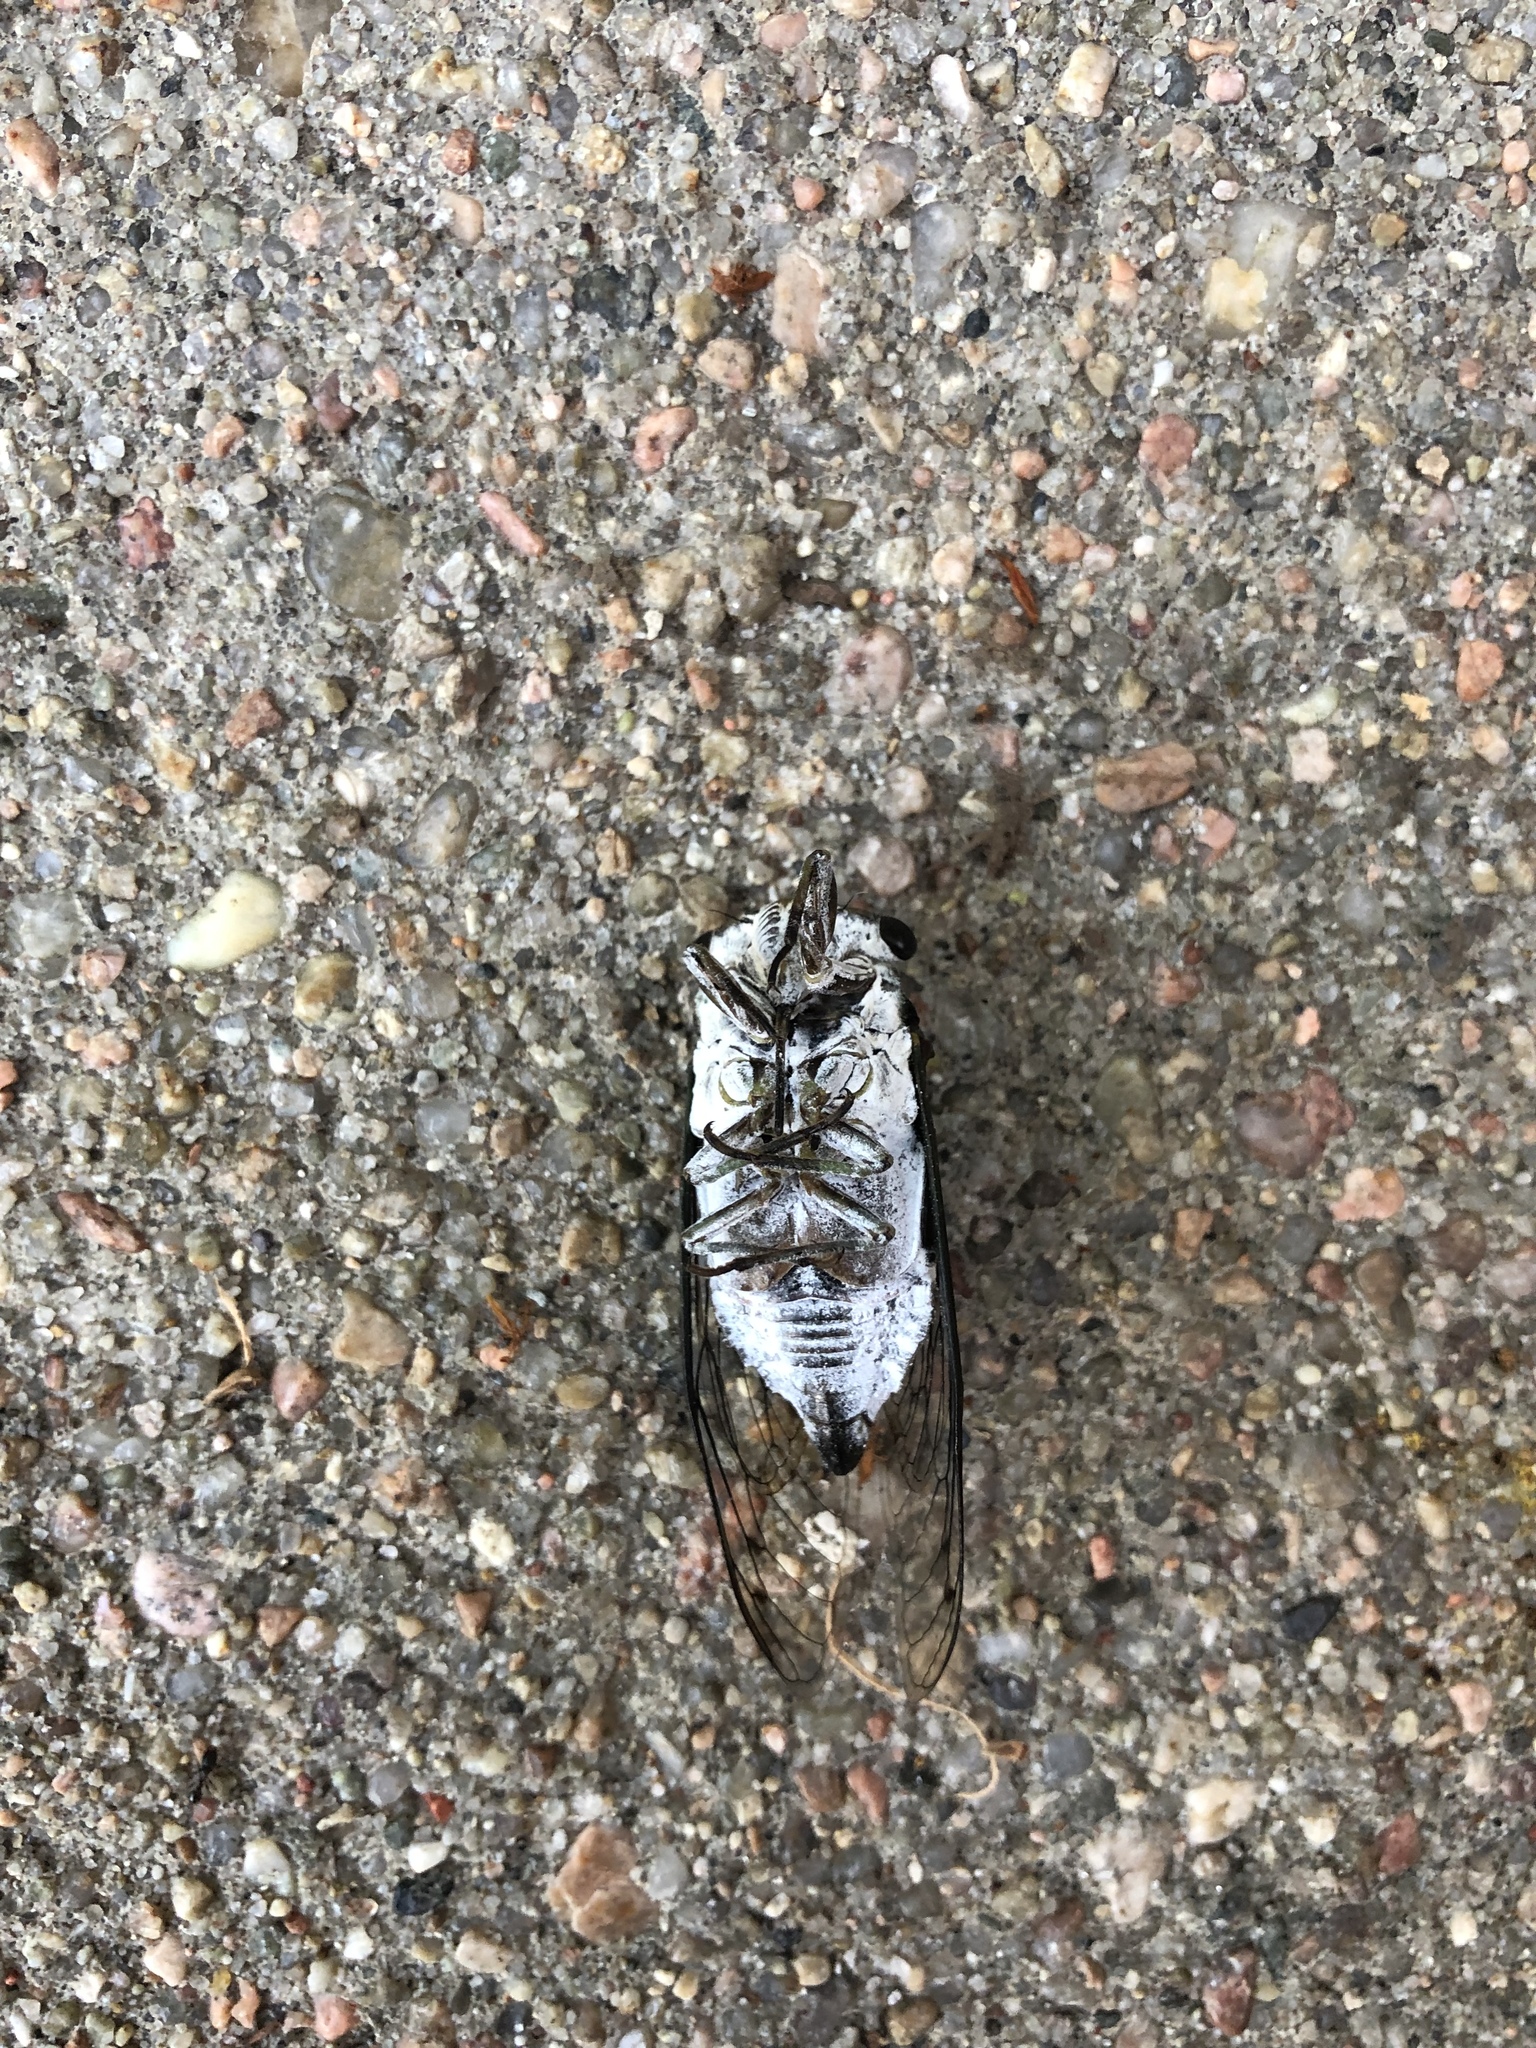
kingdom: Animalia
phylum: Arthropoda
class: Insecta
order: Hemiptera
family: Cicadidae
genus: Neotibicen
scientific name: Neotibicen pruinosus
